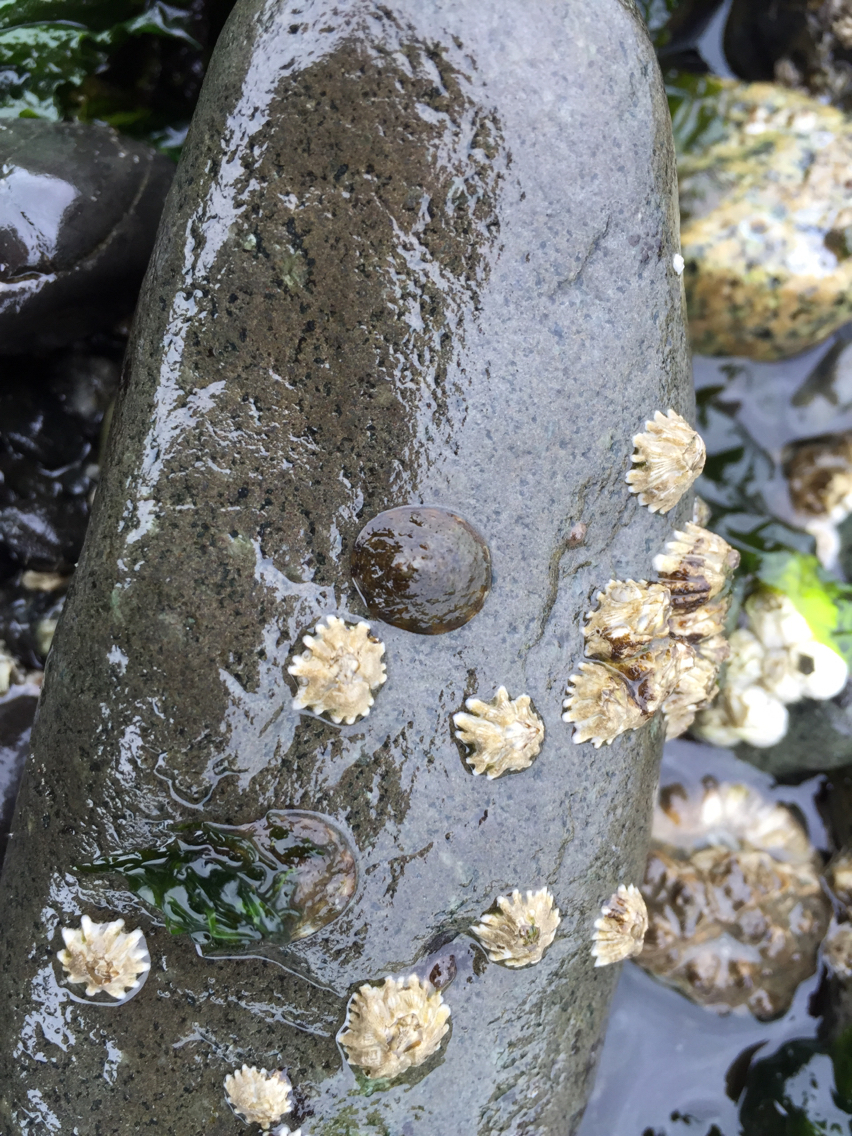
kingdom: Animalia
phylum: Mollusca
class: Gastropoda
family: Lottiidae
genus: Lottia
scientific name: Lottia scutum
